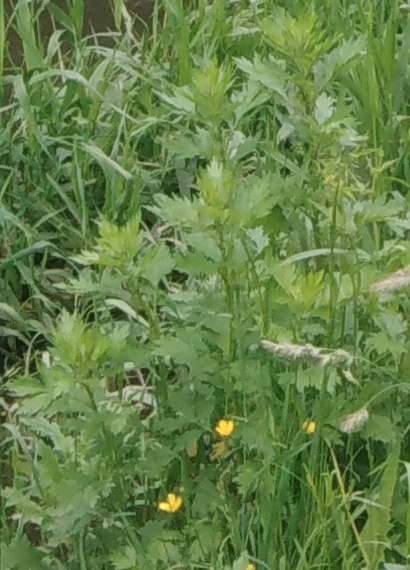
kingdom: Plantae
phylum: Tracheophyta
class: Magnoliopsida
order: Asterales
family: Asteraceae
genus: Artemisia
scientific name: Artemisia vulgaris
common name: Mugwort
